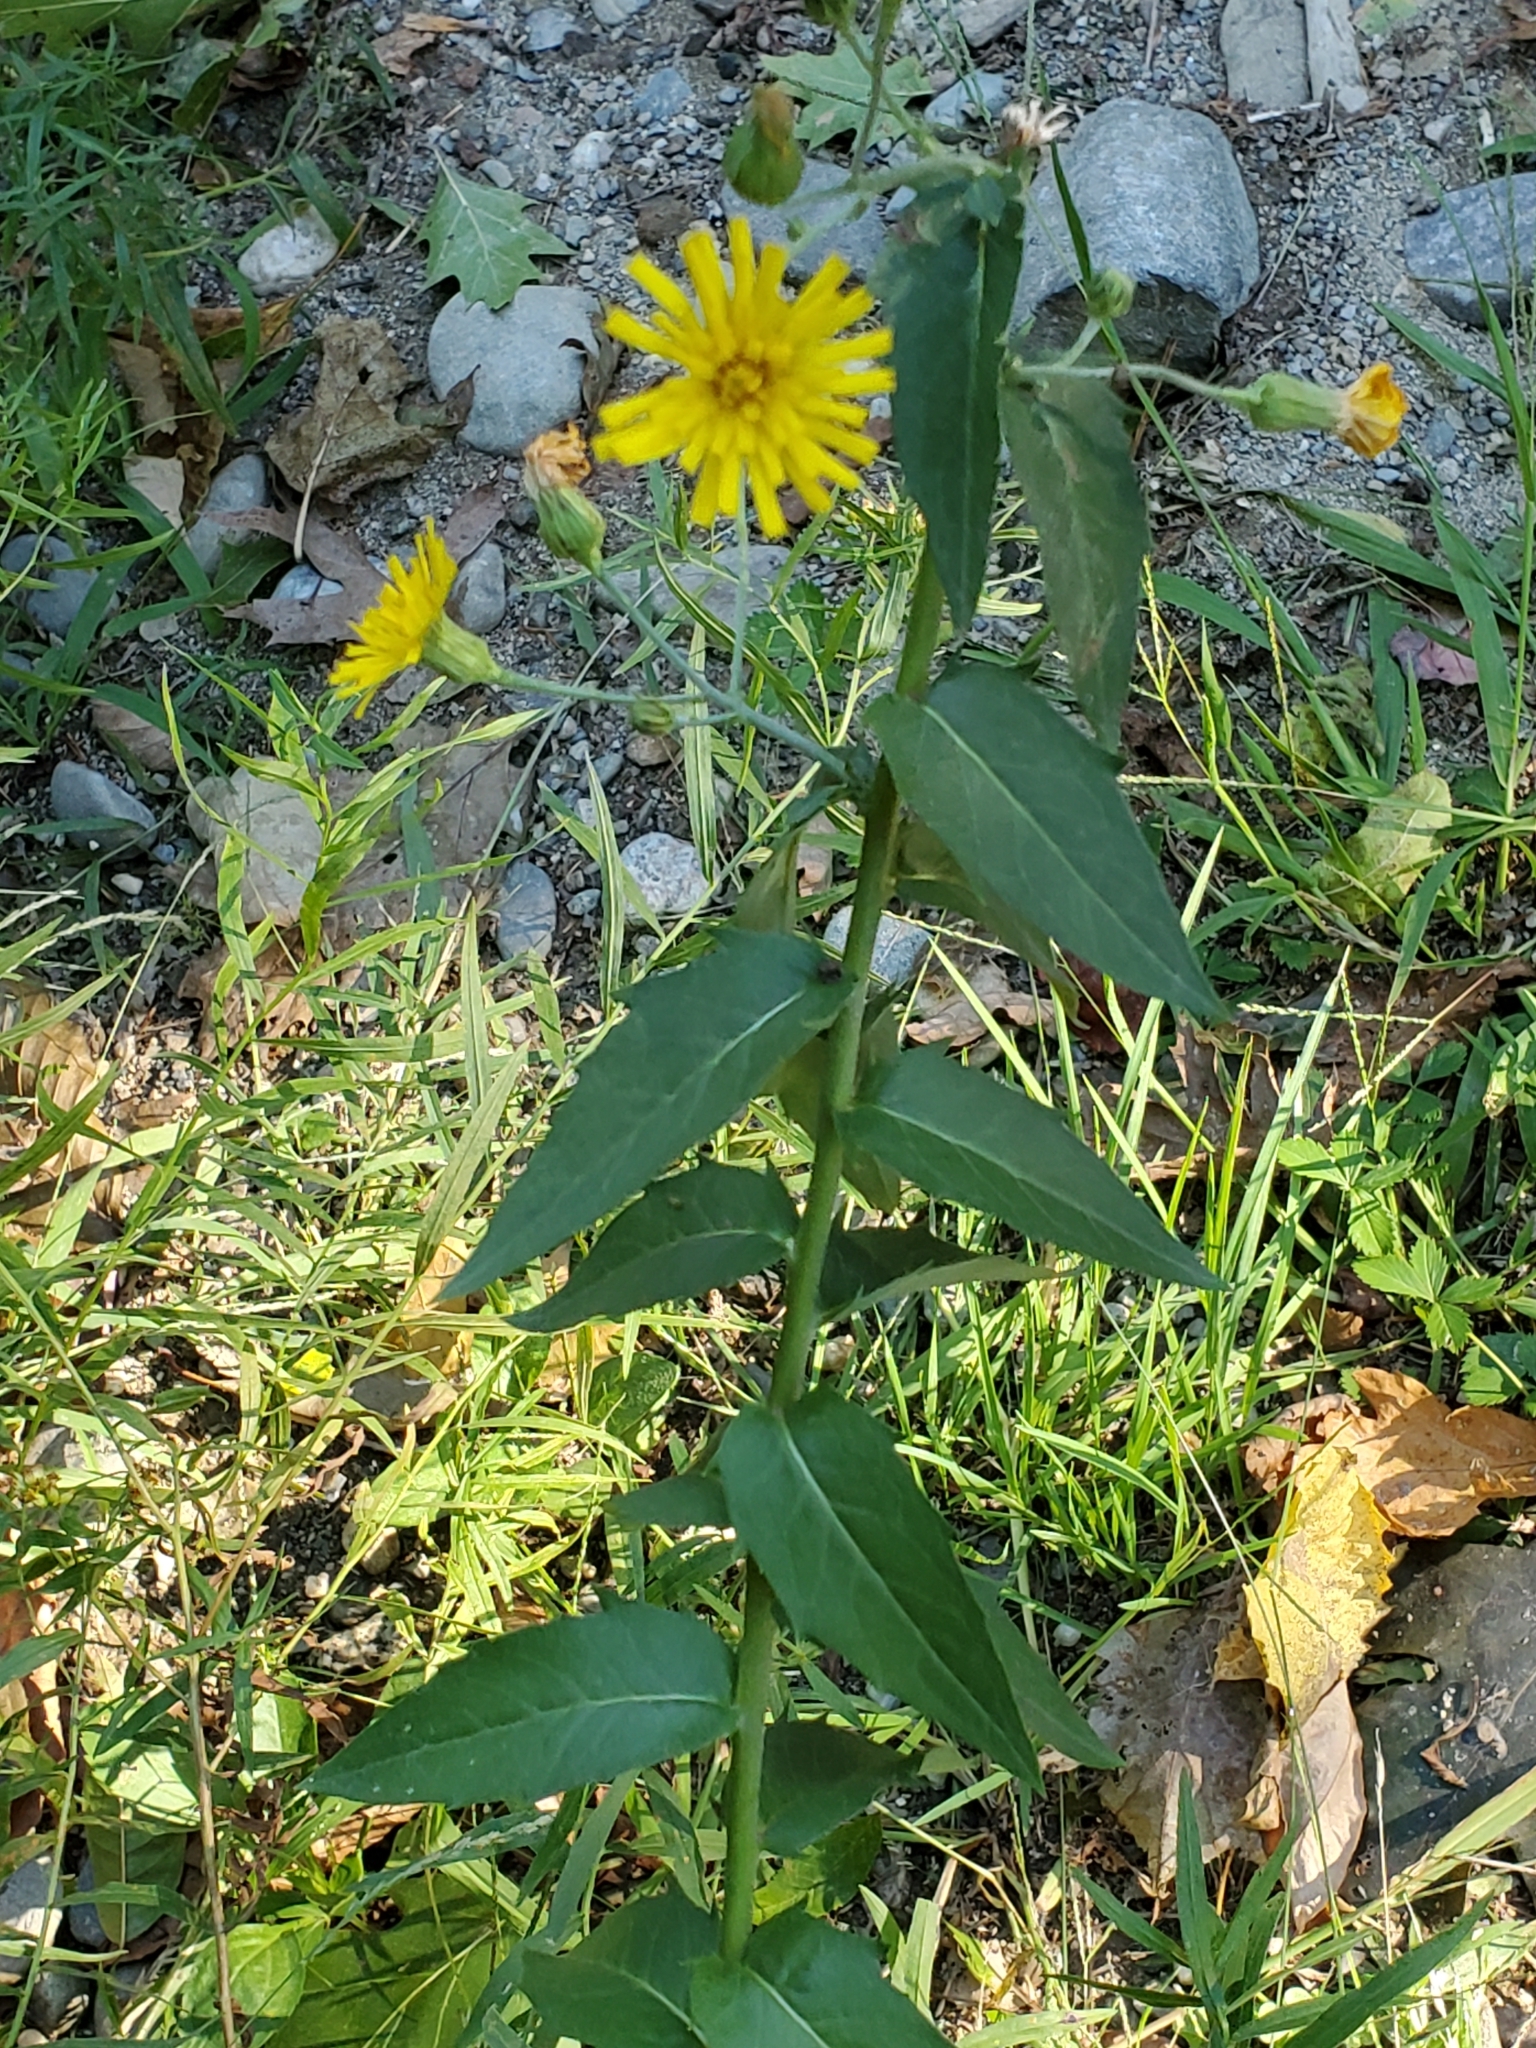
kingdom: Plantae
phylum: Tracheophyta
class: Magnoliopsida
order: Asterales
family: Asteraceae
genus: Hieracium
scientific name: Hieracium umbellatum
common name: Northern hawkweed
